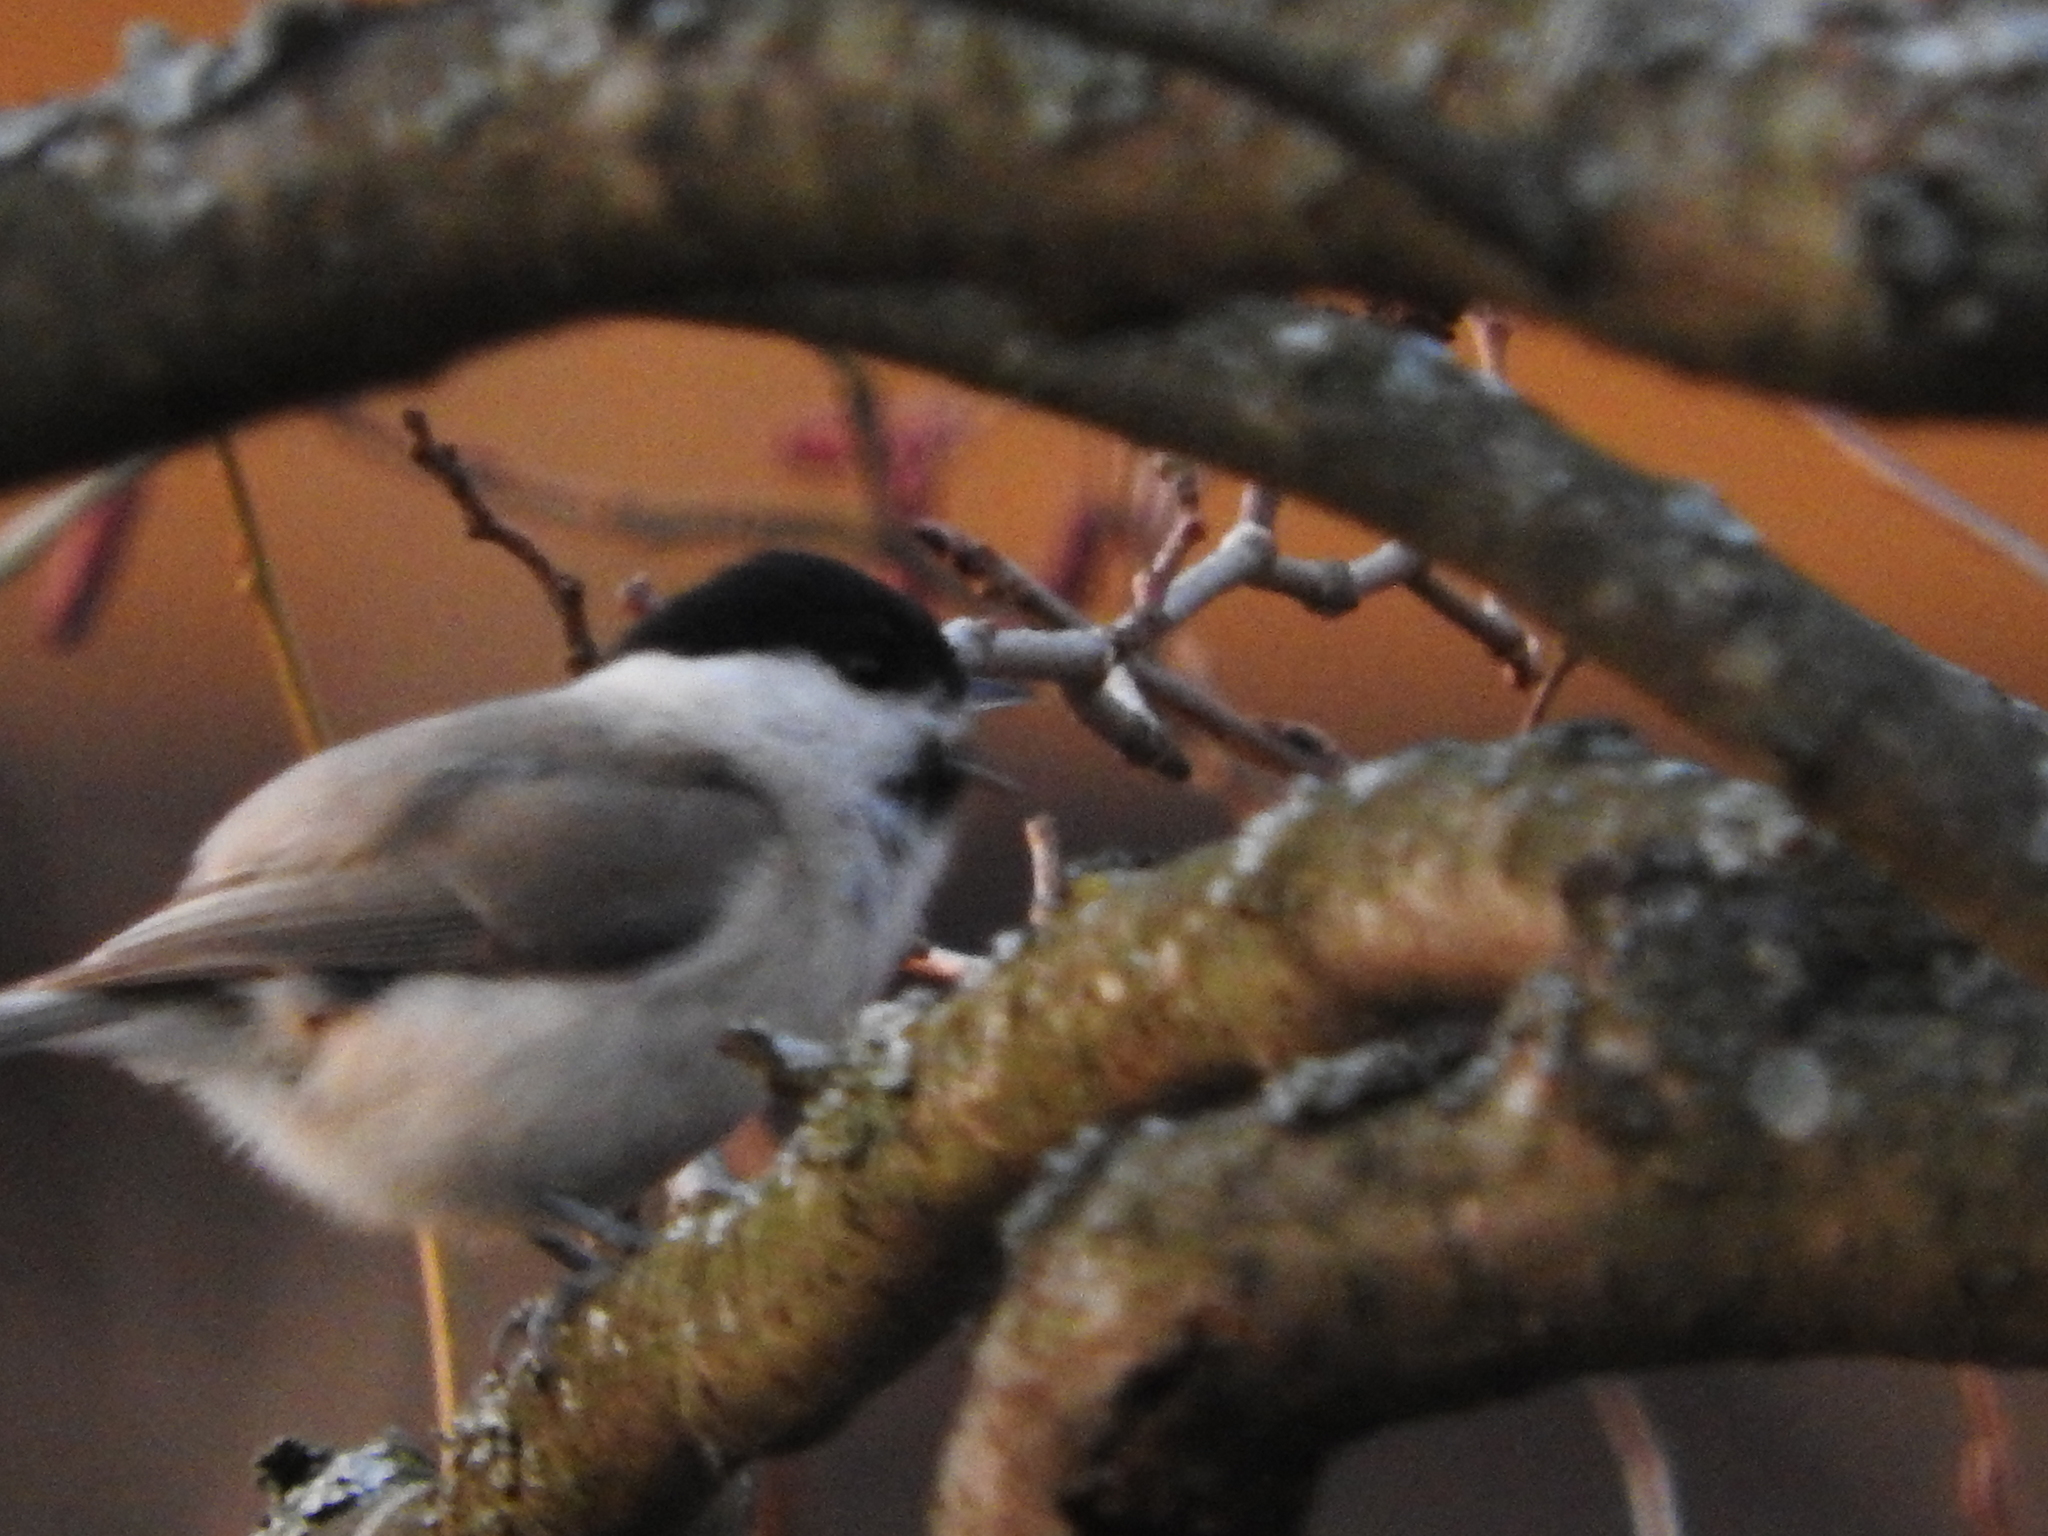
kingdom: Animalia
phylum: Chordata
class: Aves
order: Passeriformes
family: Paridae
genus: Poecile
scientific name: Poecile palustris
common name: Marsh tit
